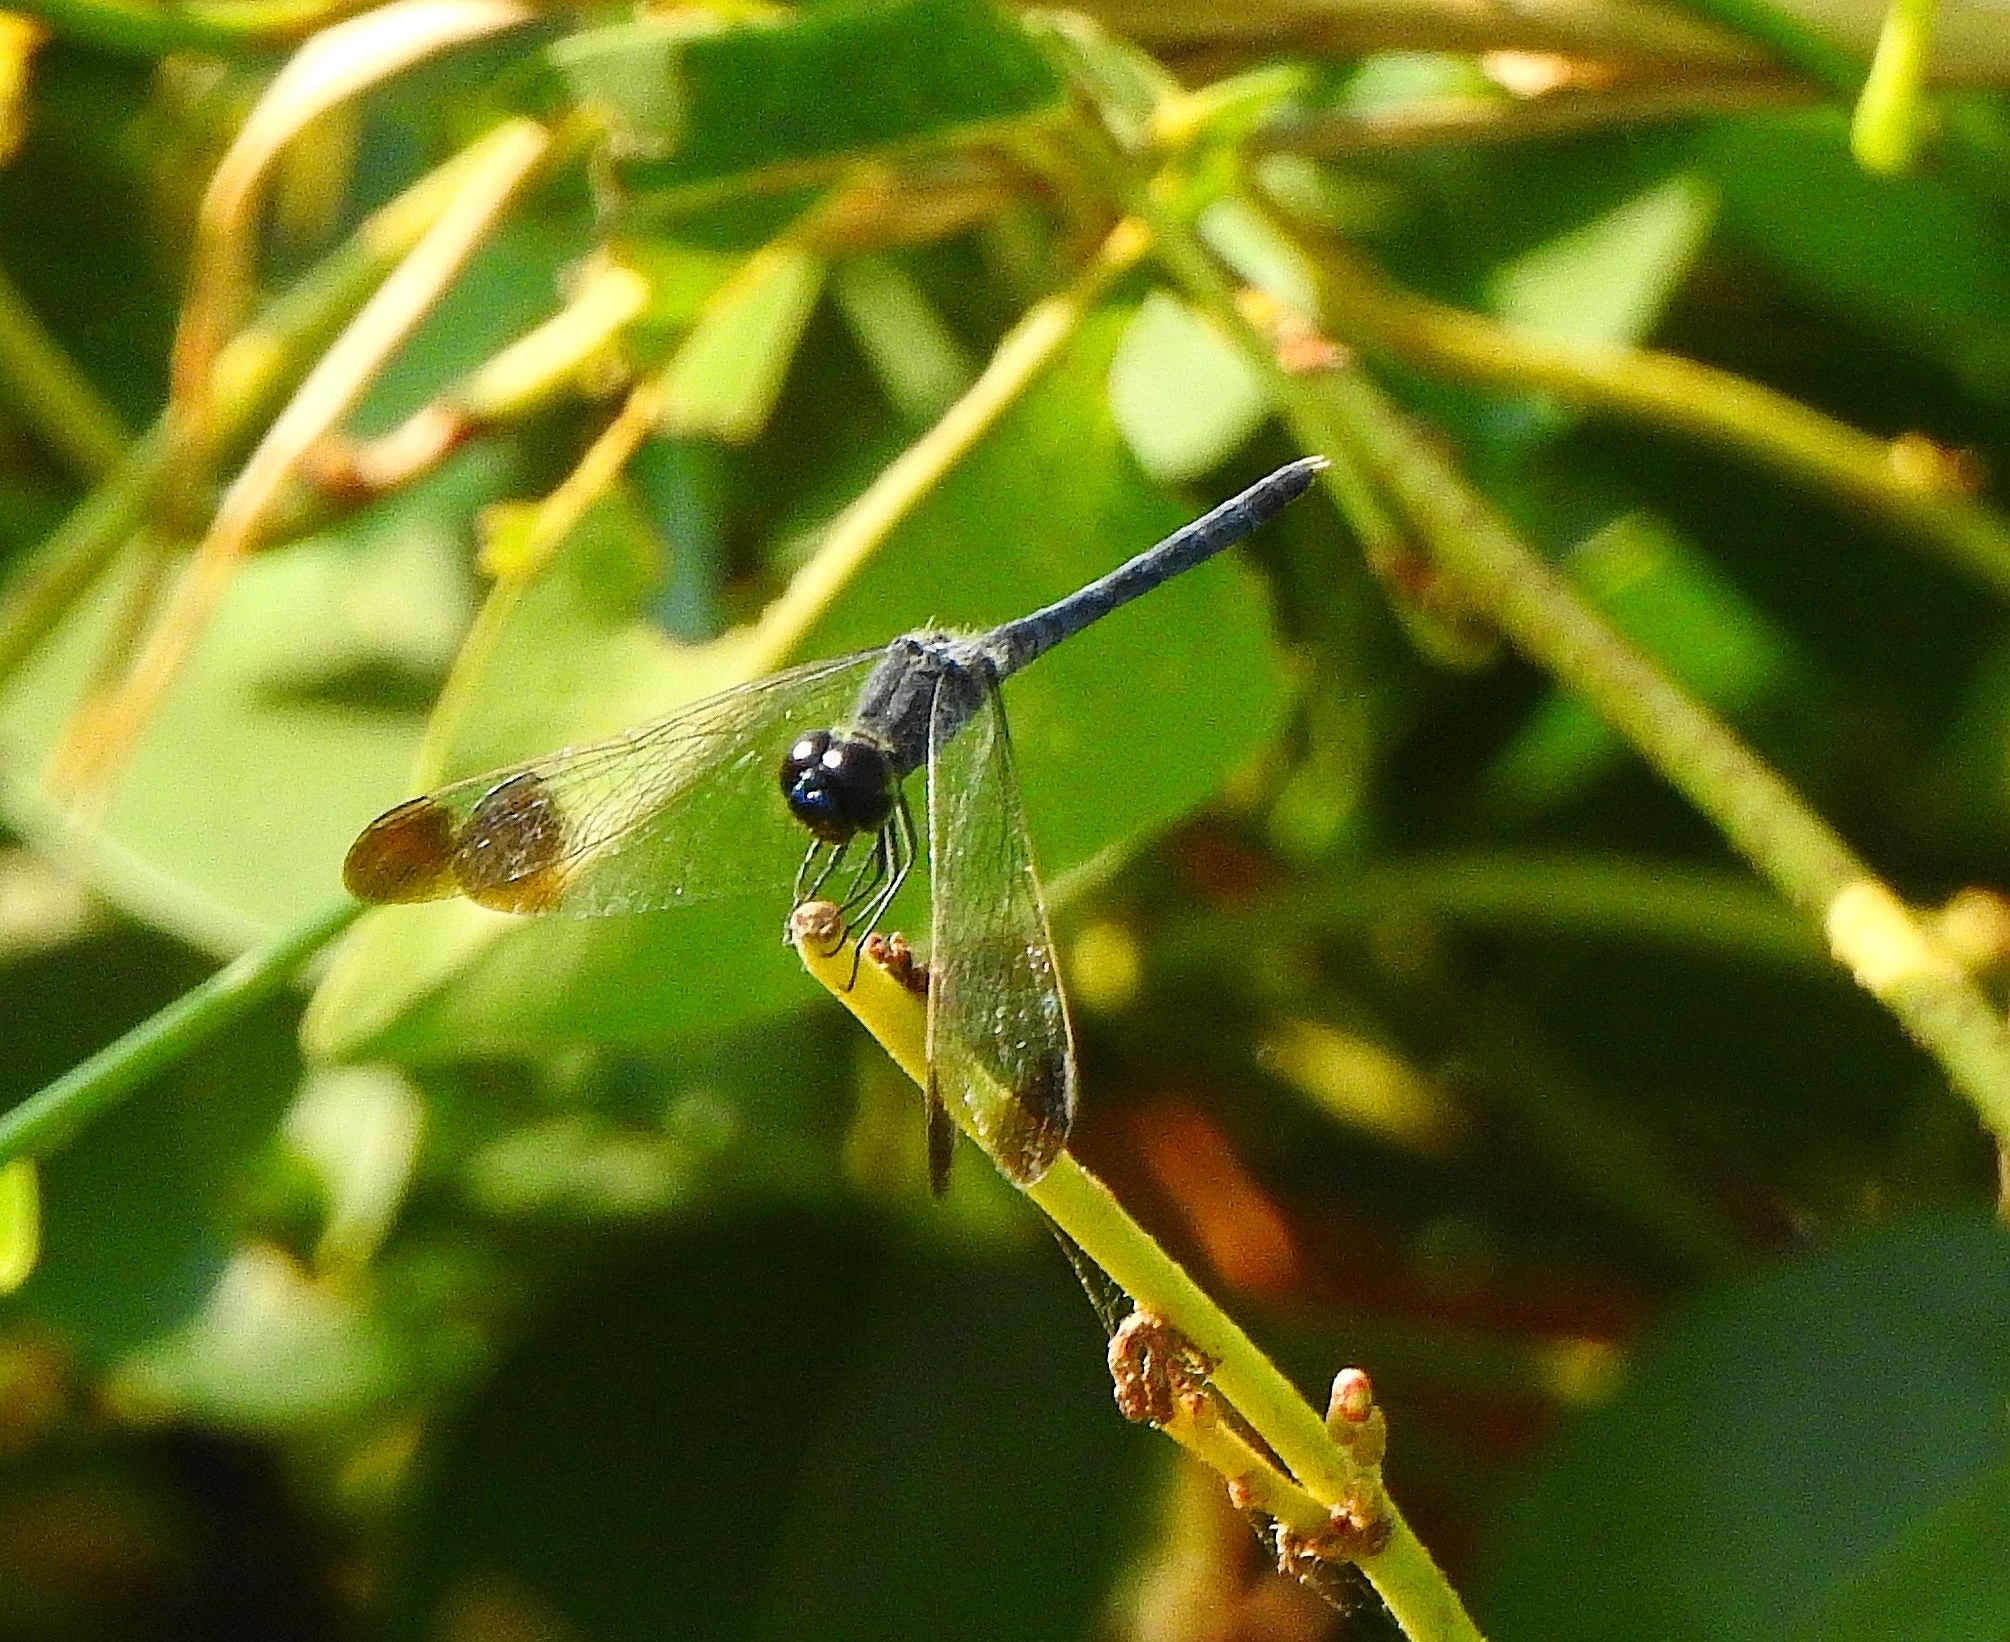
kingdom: Animalia
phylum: Arthropoda
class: Insecta
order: Odonata
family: Libellulidae
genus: Diplacodes
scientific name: Diplacodes nebulosa
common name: Black-tipped percher
